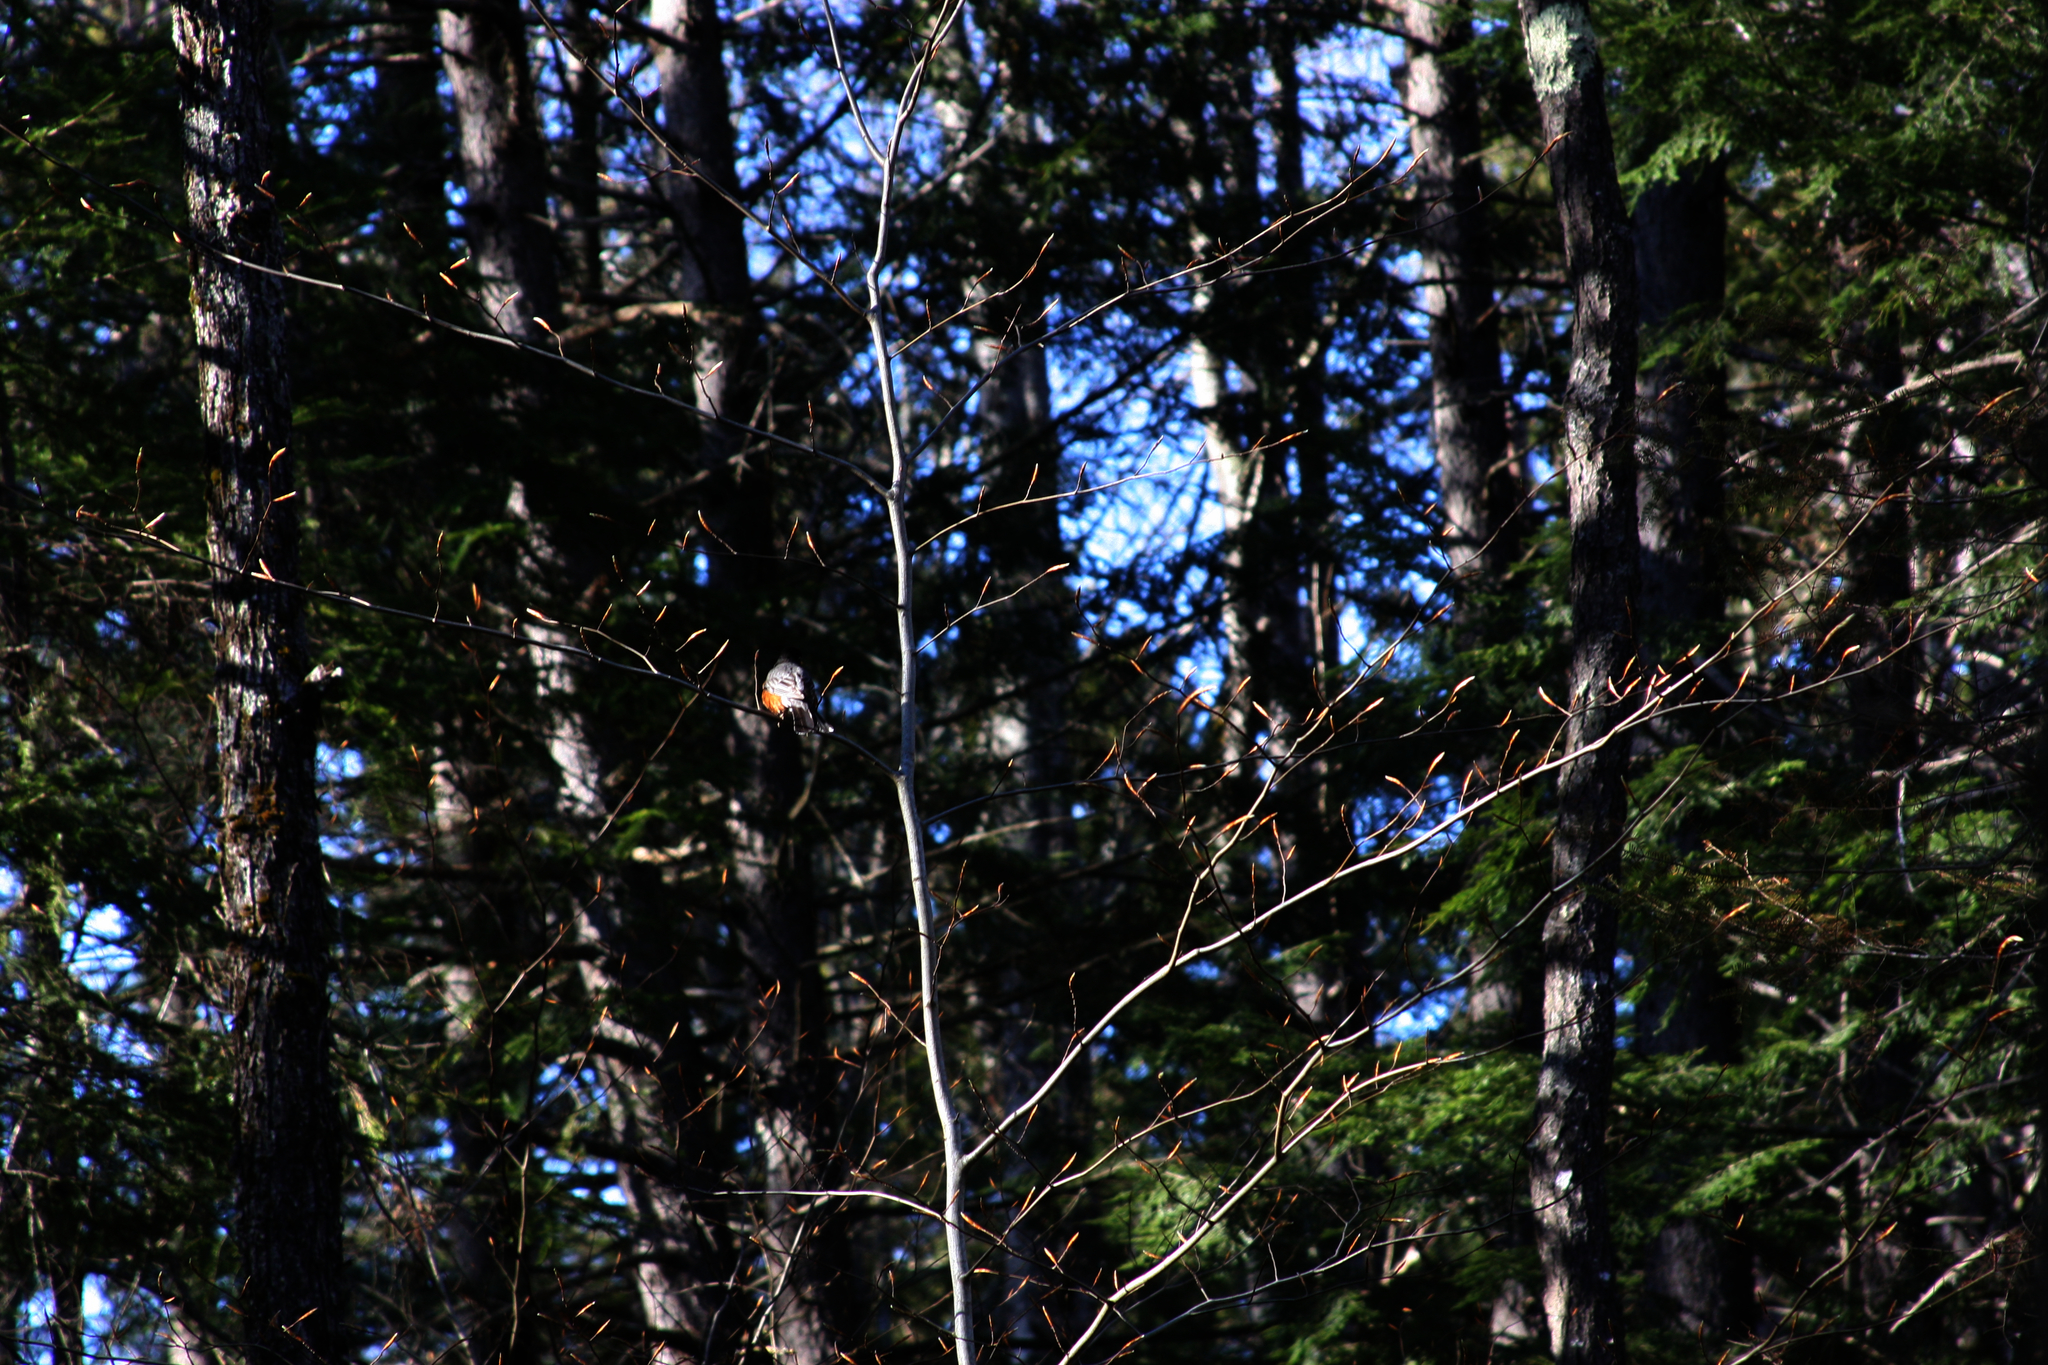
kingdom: Animalia
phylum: Chordata
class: Aves
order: Passeriformes
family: Turdidae
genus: Turdus
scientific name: Turdus migratorius
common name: American robin
